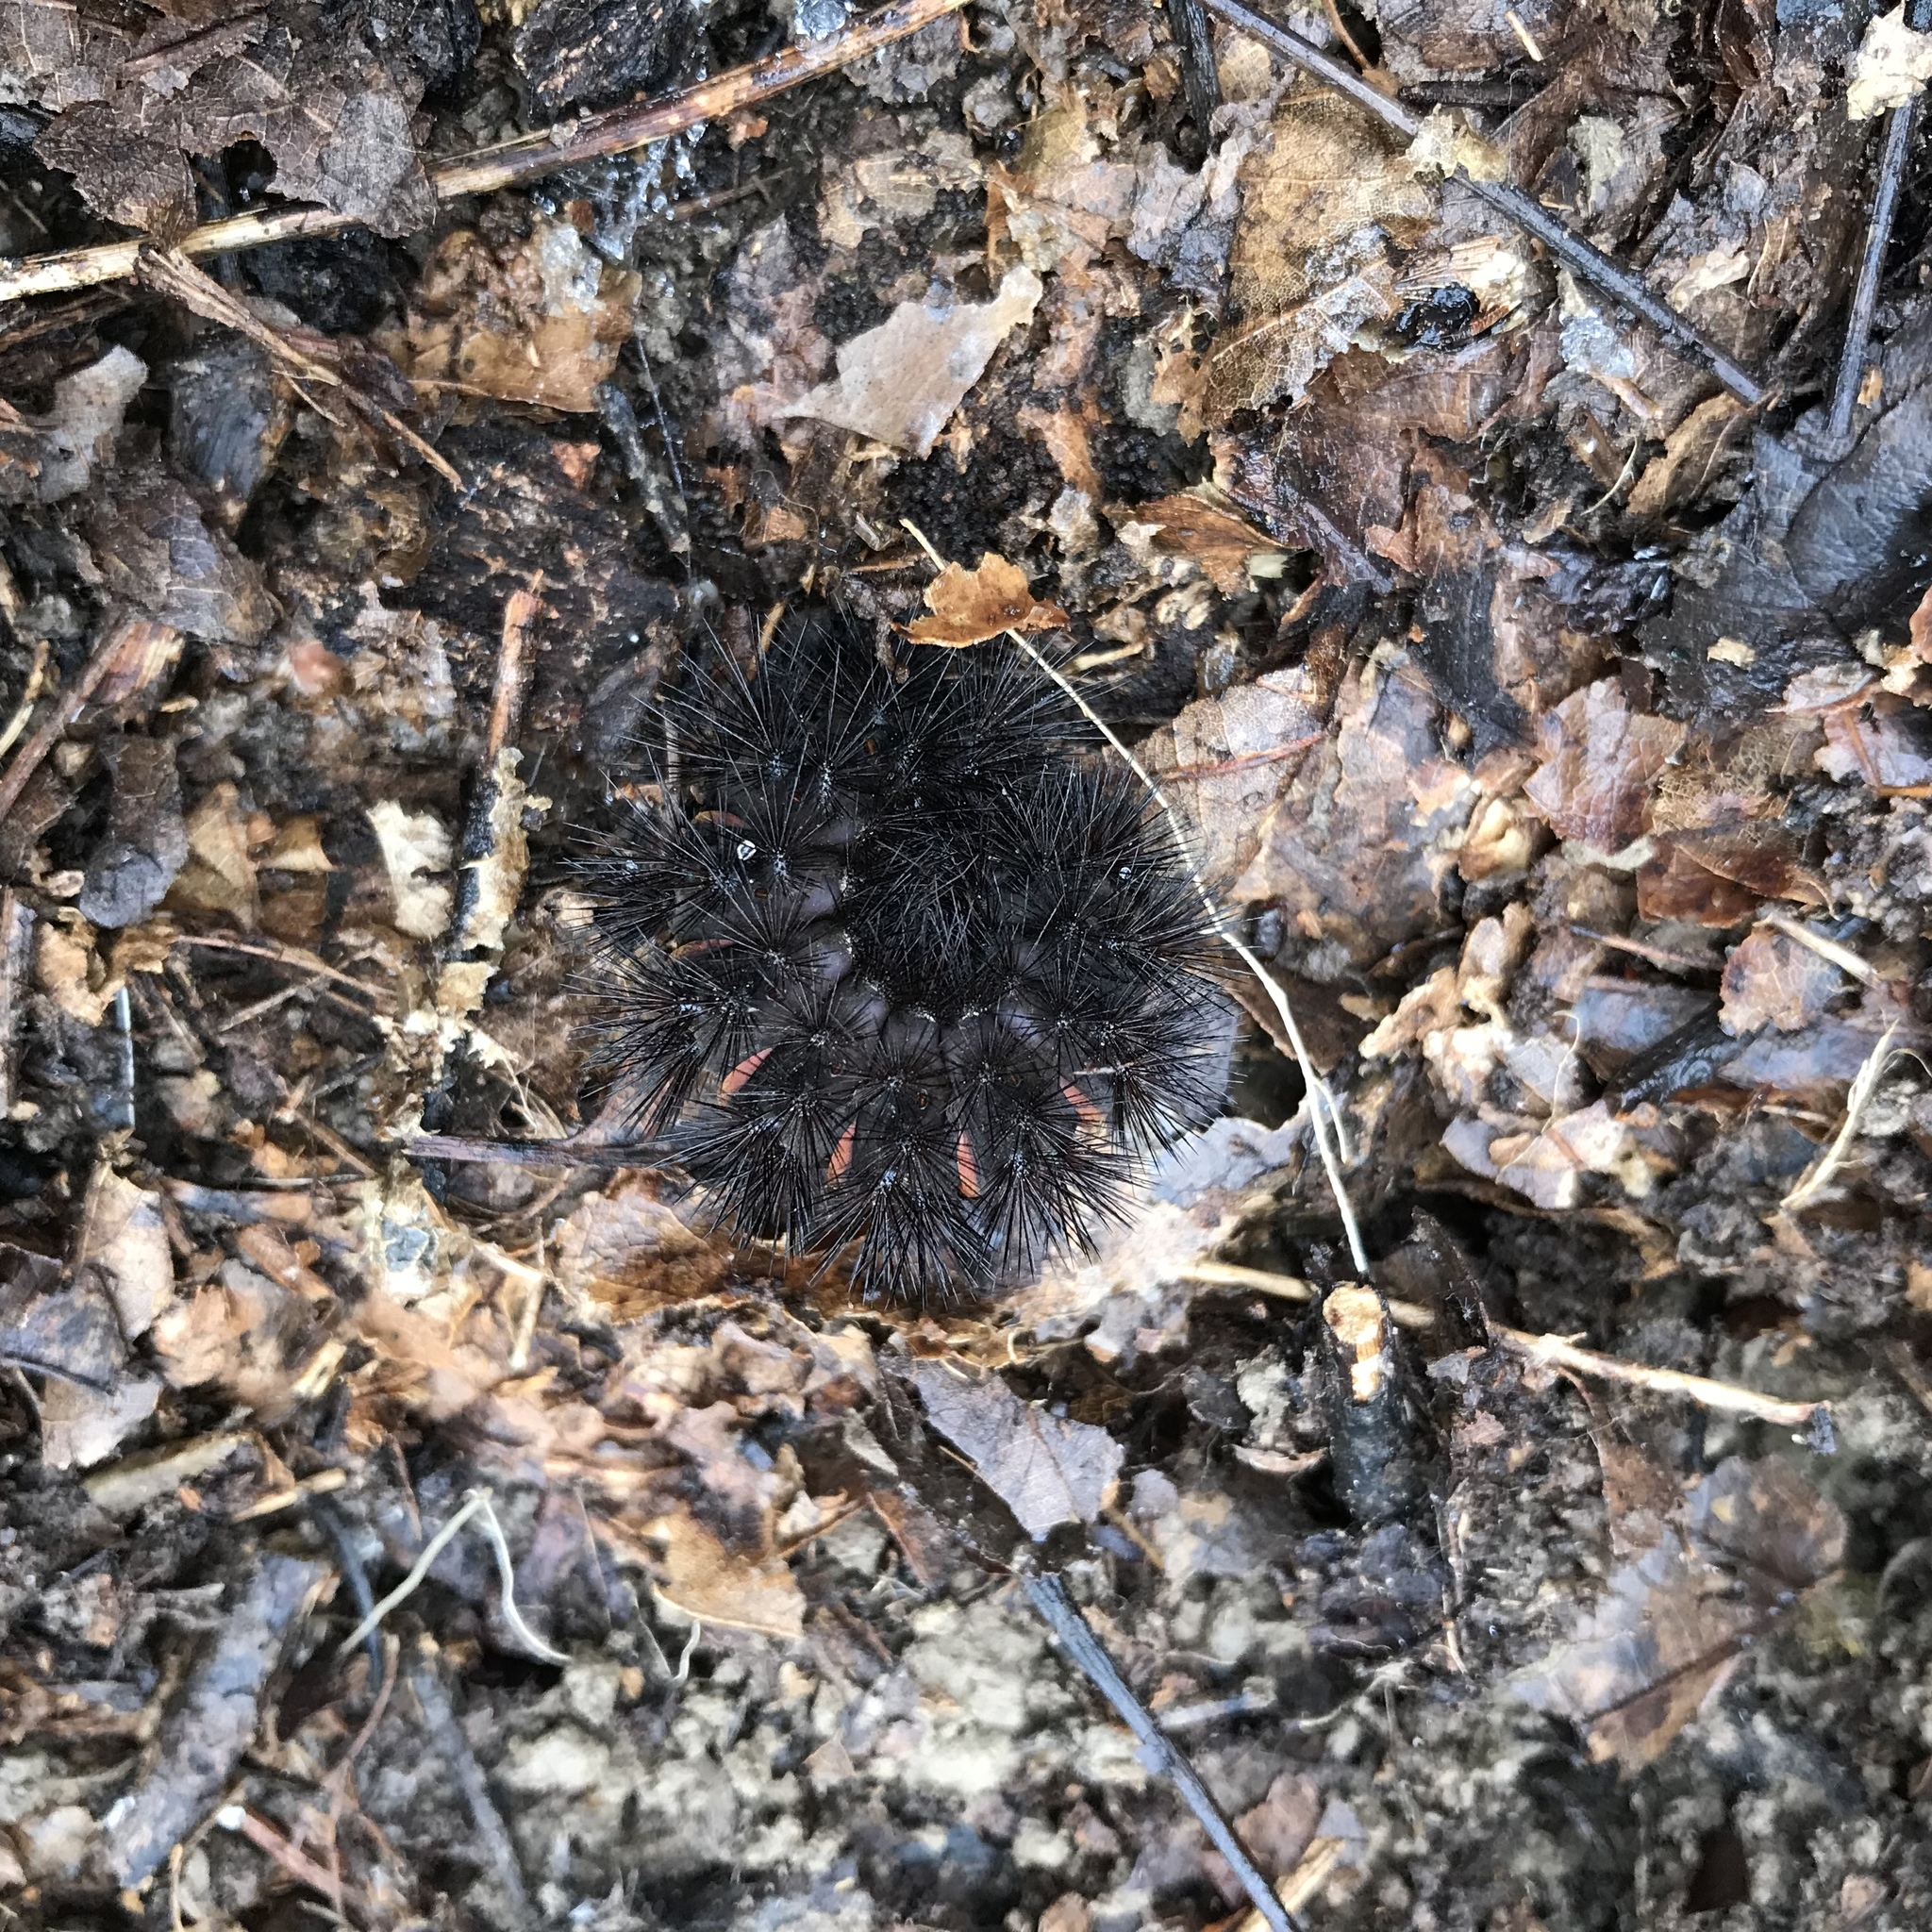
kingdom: Animalia
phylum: Arthropoda
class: Insecta
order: Lepidoptera
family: Erebidae
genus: Hypercompe
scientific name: Hypercompe scribonia
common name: Giant leopard moth
